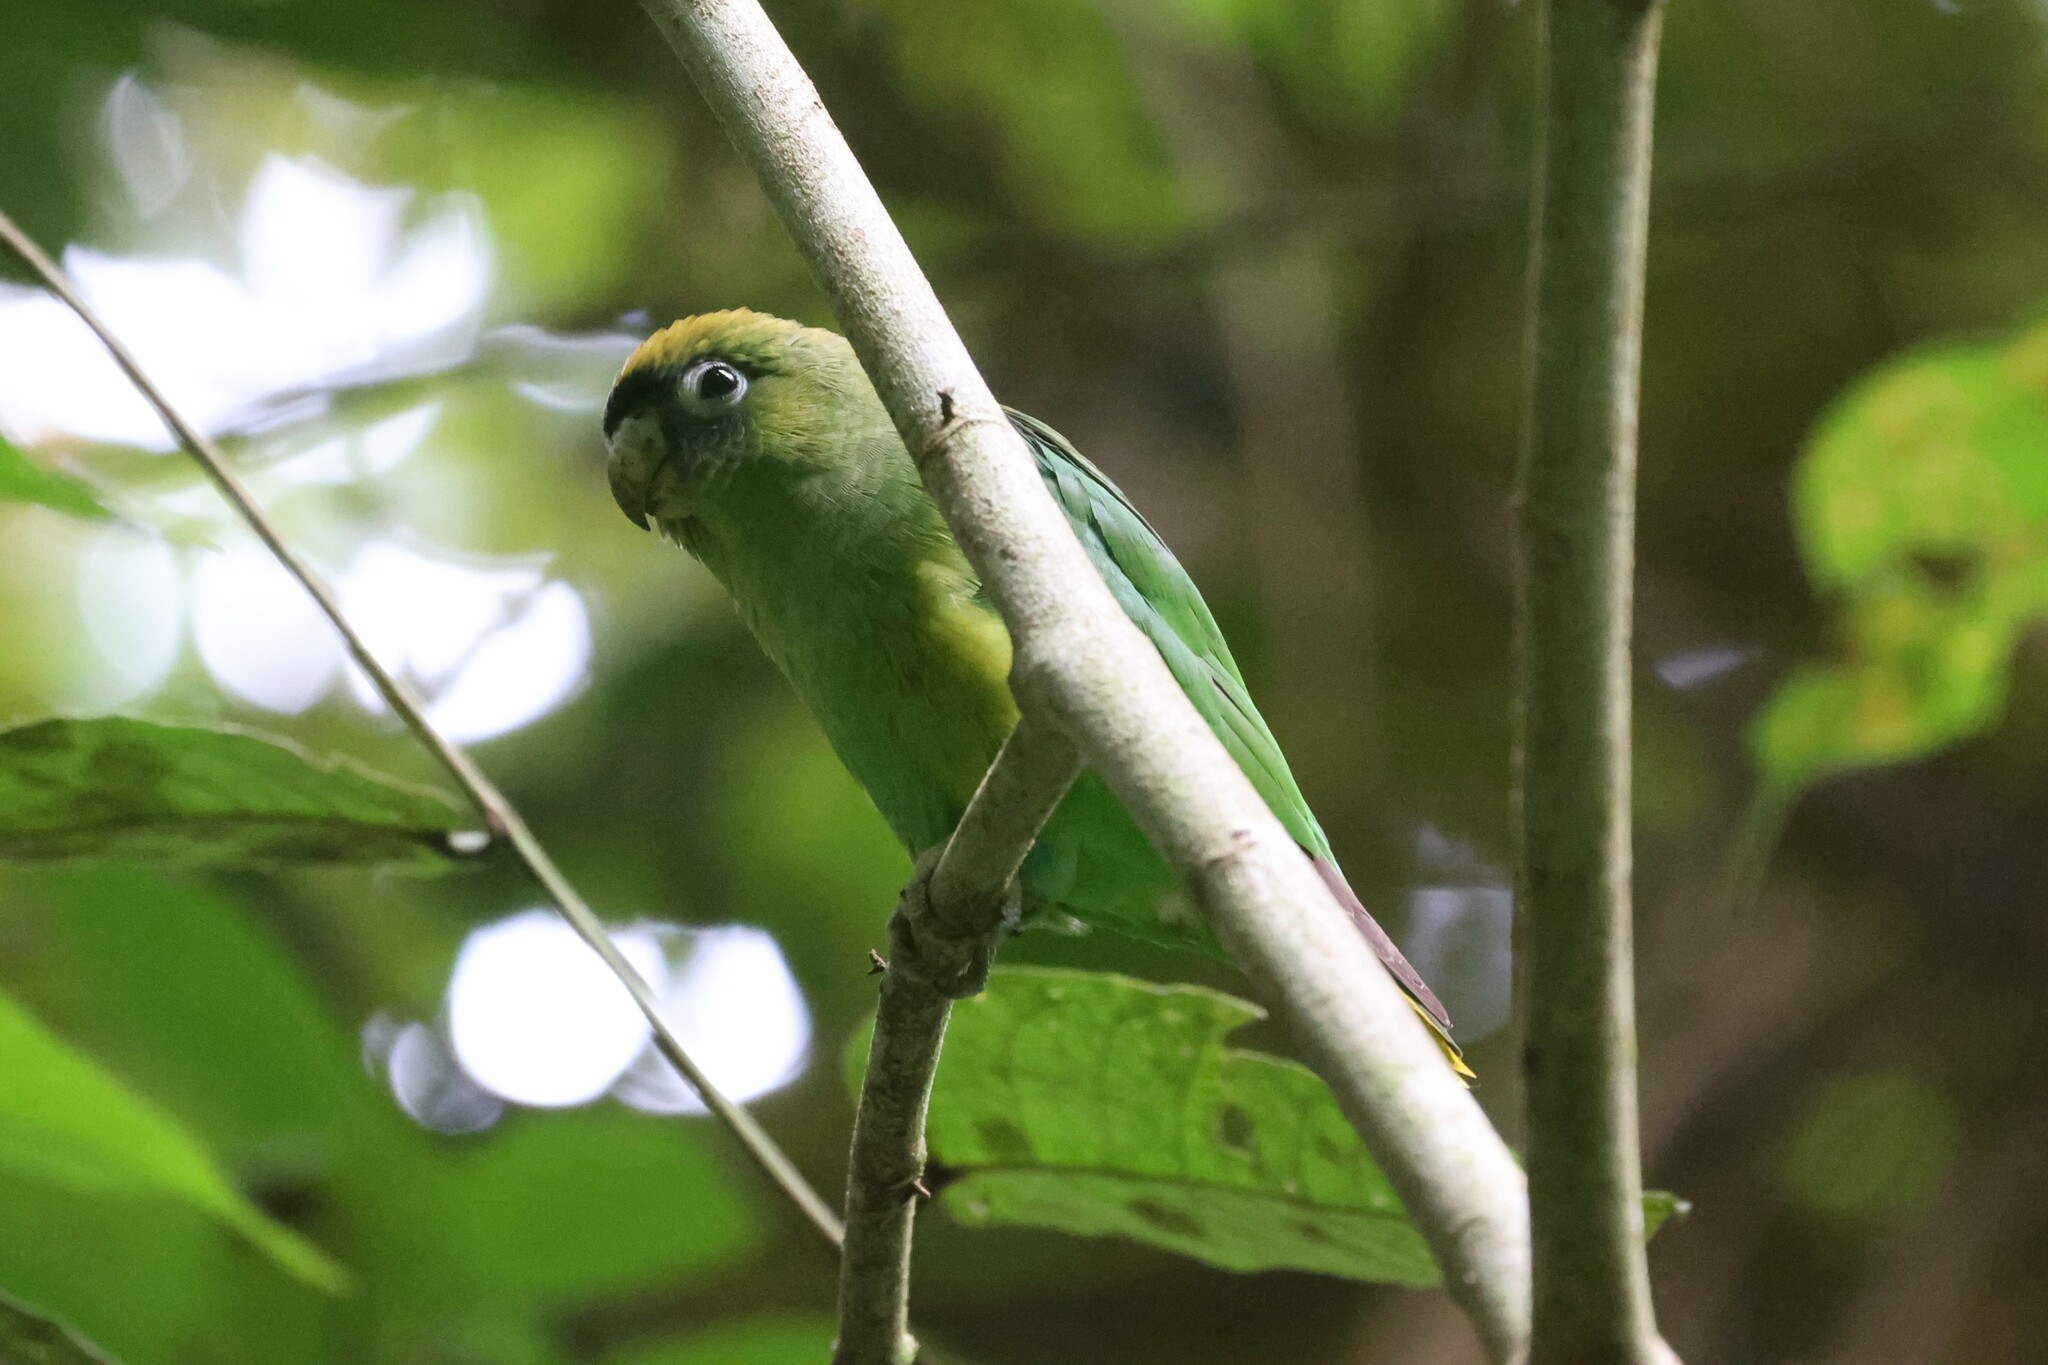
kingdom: Animalia
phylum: Chordata
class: Aves
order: Psittaciformes
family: Psittacidae
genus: Touit
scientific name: Touit huetii
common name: Scarlet-shouldered parrotlet
